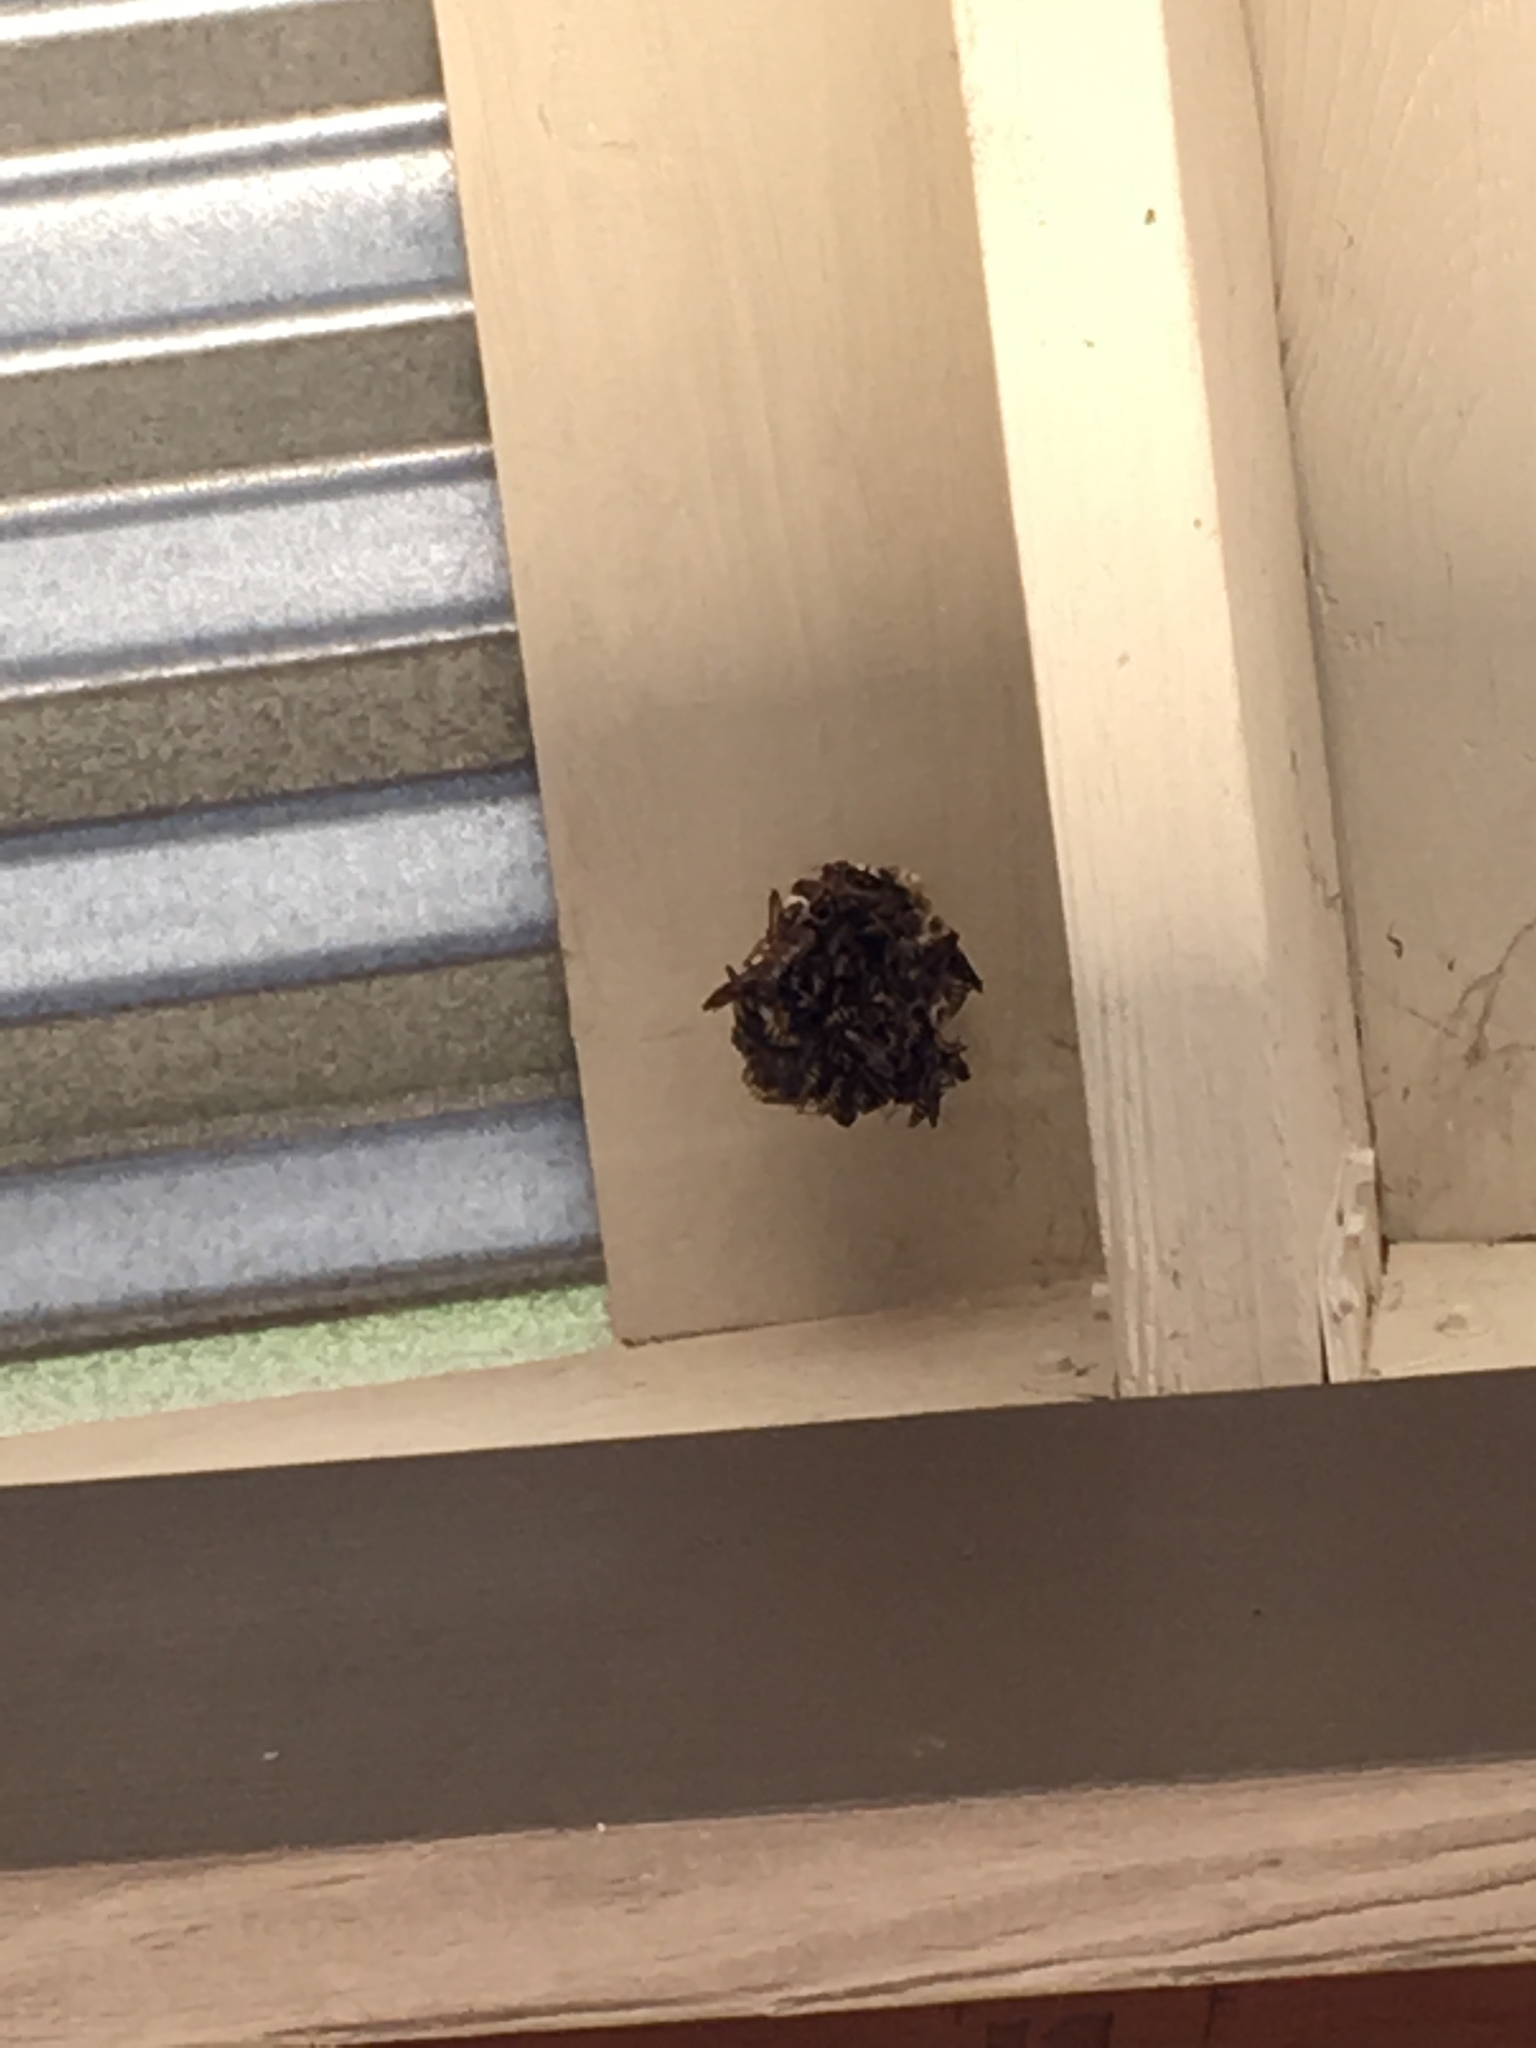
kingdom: Animalia
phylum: Arthropoda
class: Insecta
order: Hymenoptera
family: Vespidae
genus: Fuscopolistes
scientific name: Fuscopolistes
